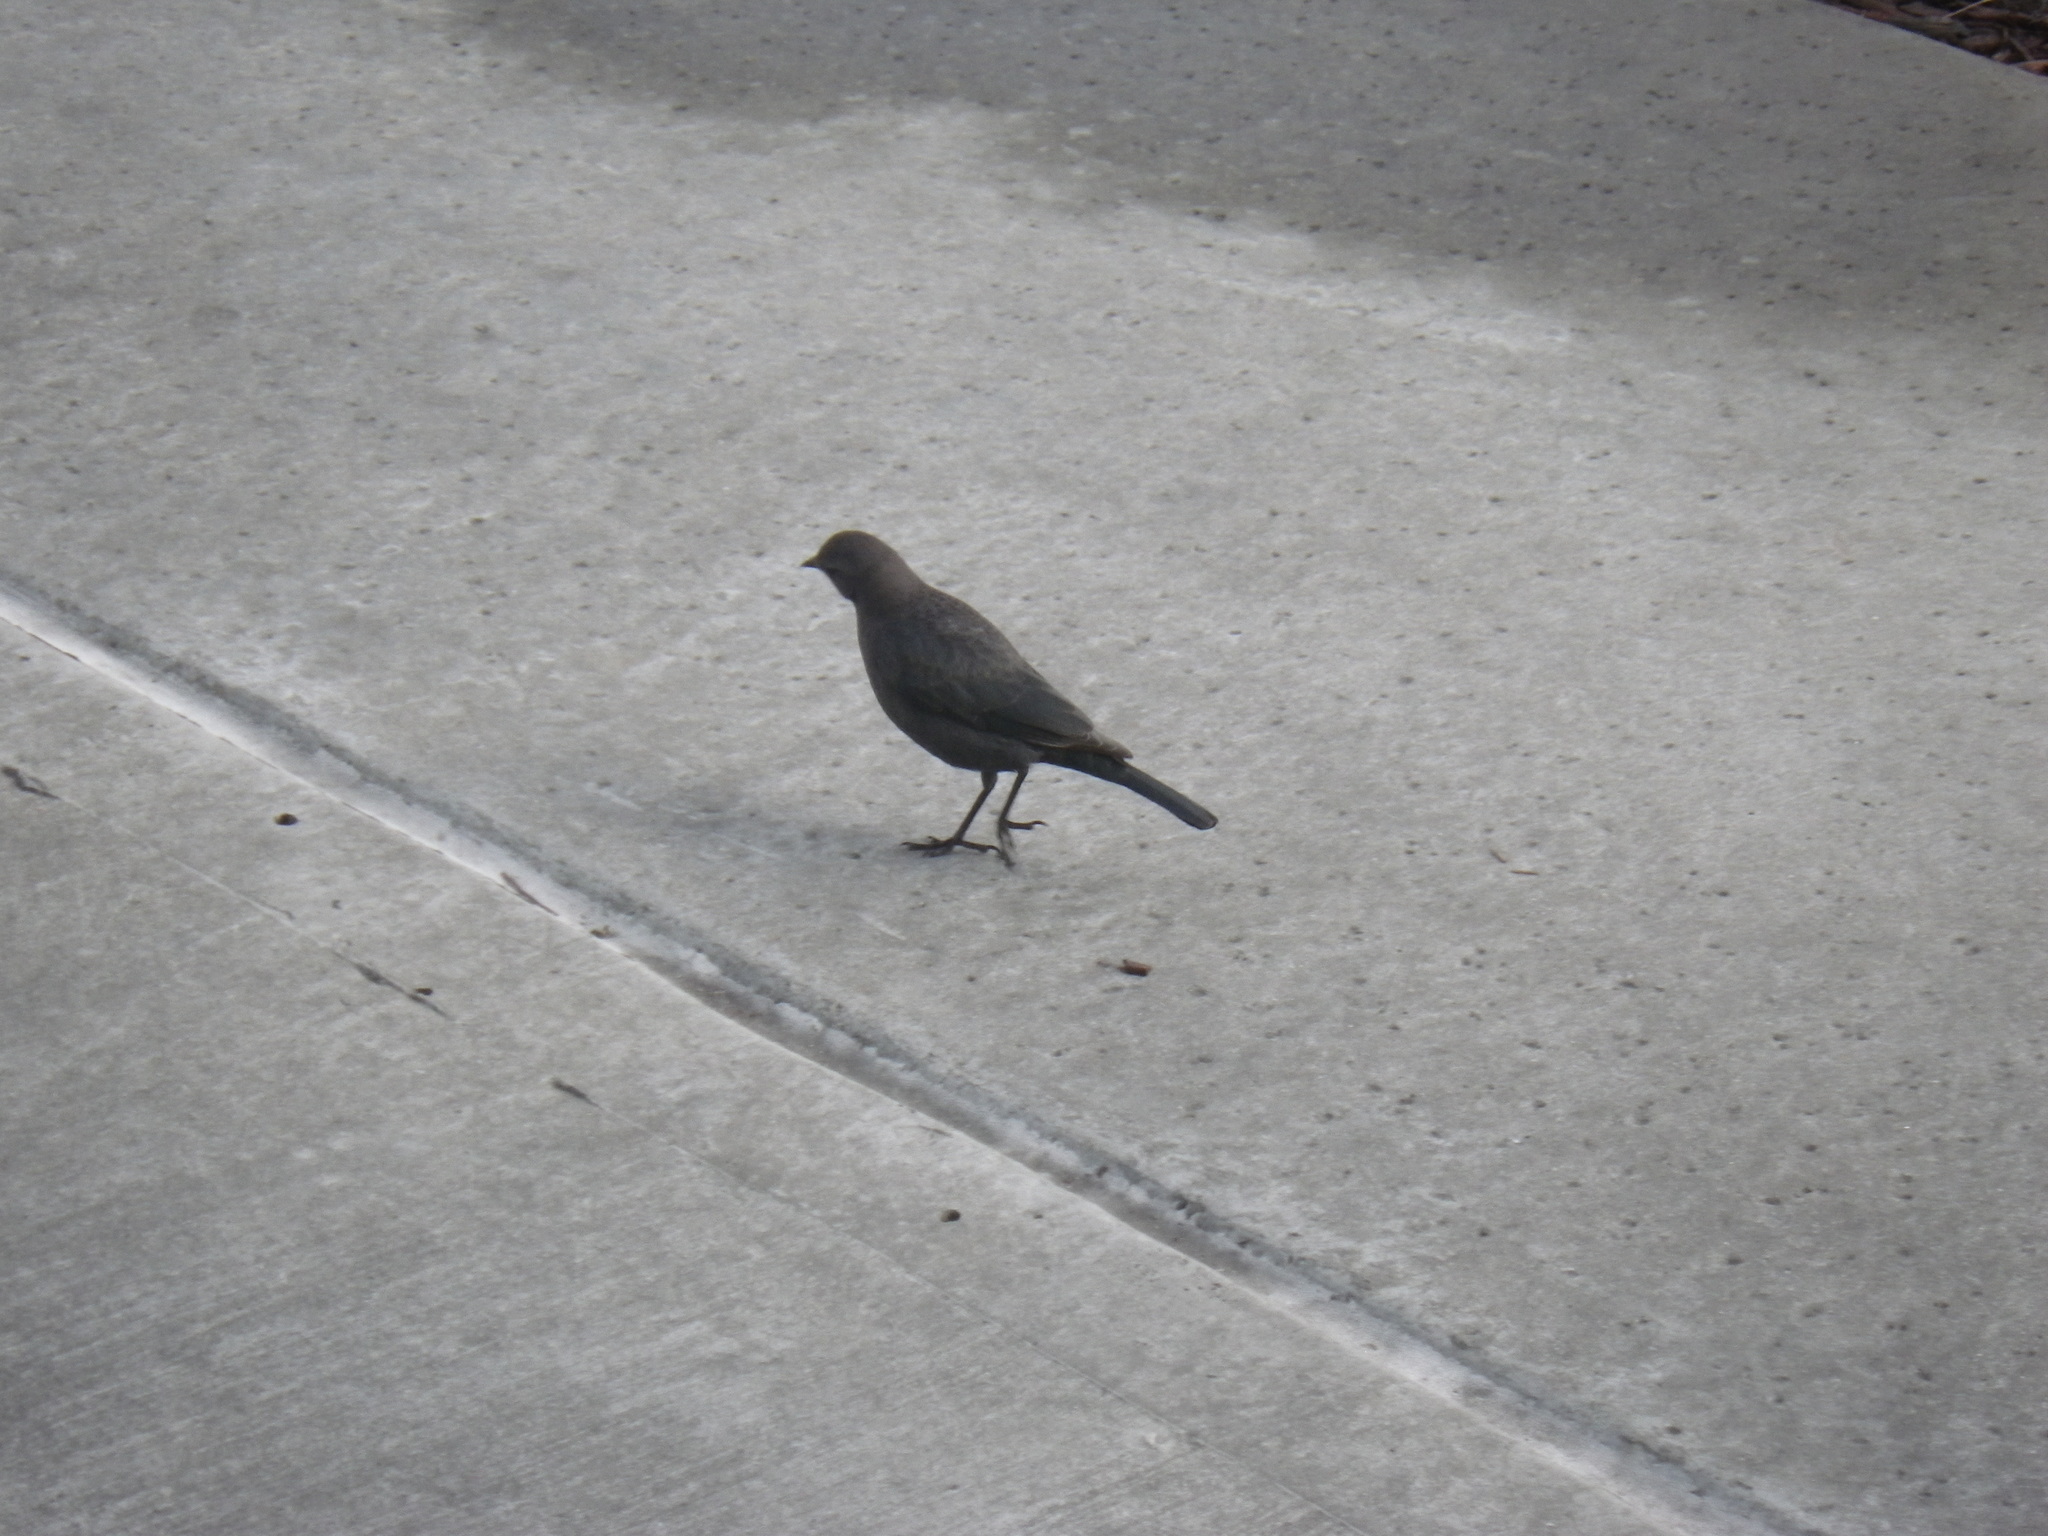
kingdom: Animalia
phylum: Chordata
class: Aves
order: Passeriformes
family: Icteridae
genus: Euphagus
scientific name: Euphagus cyanocephalus
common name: Brewer's blackbird
